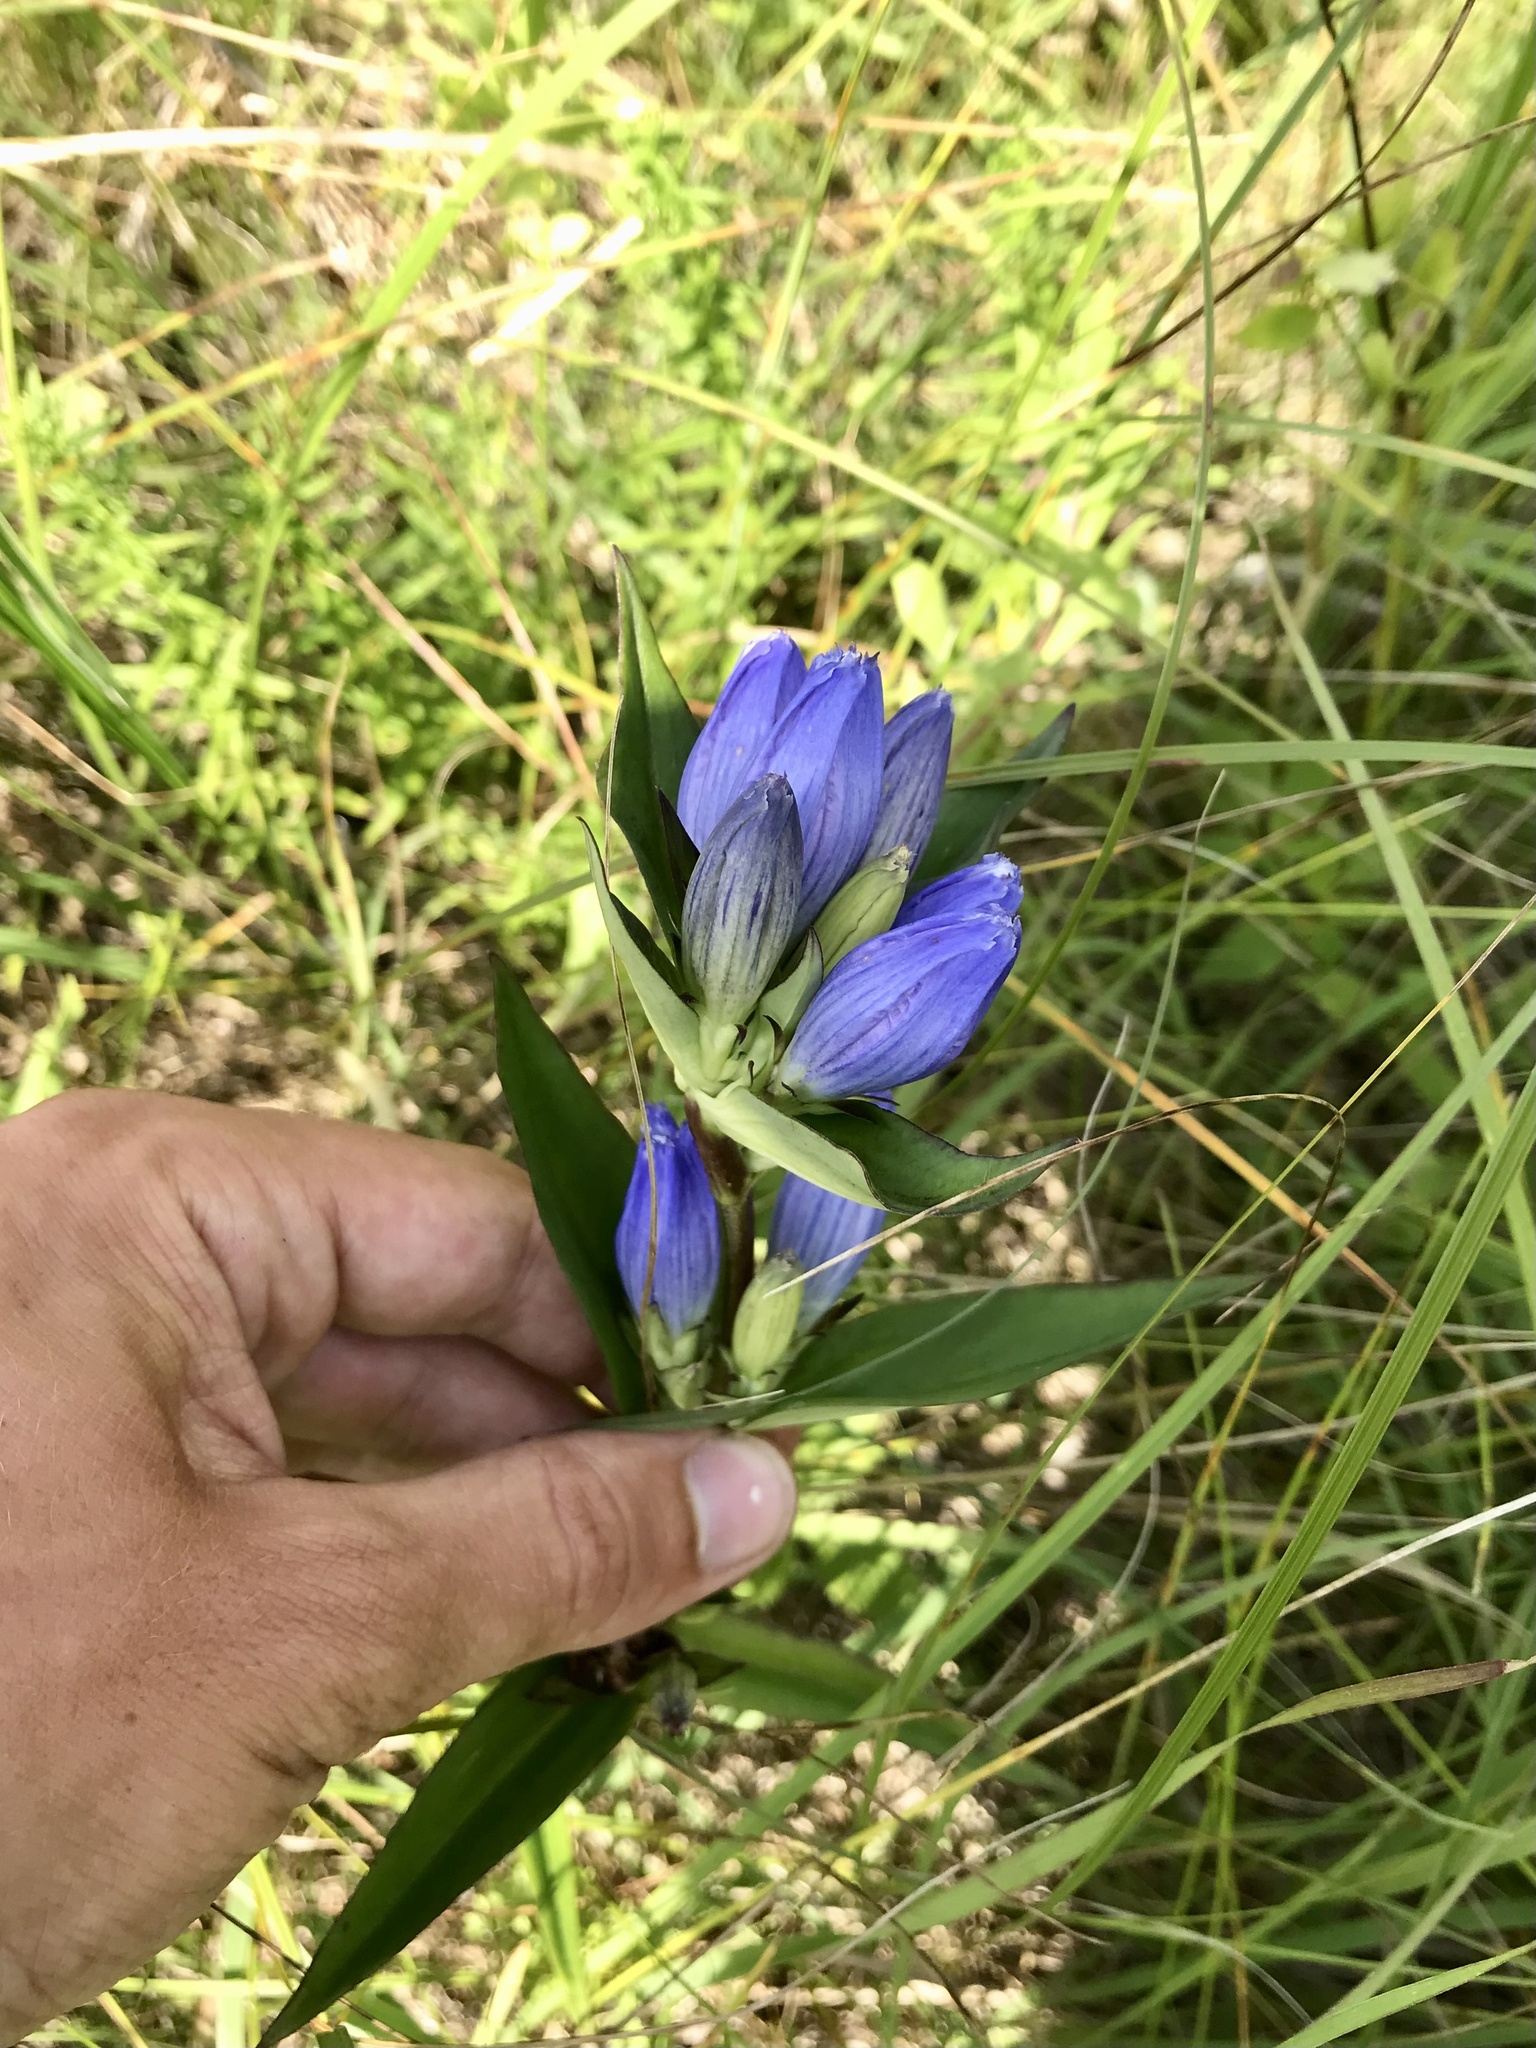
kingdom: Plantae
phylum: Tracheophyta
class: Magnoliopsida
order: Gentianales
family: Gentianaceae
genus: Gentiana
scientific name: Gentiana andrewsii
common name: Bottle gentian
